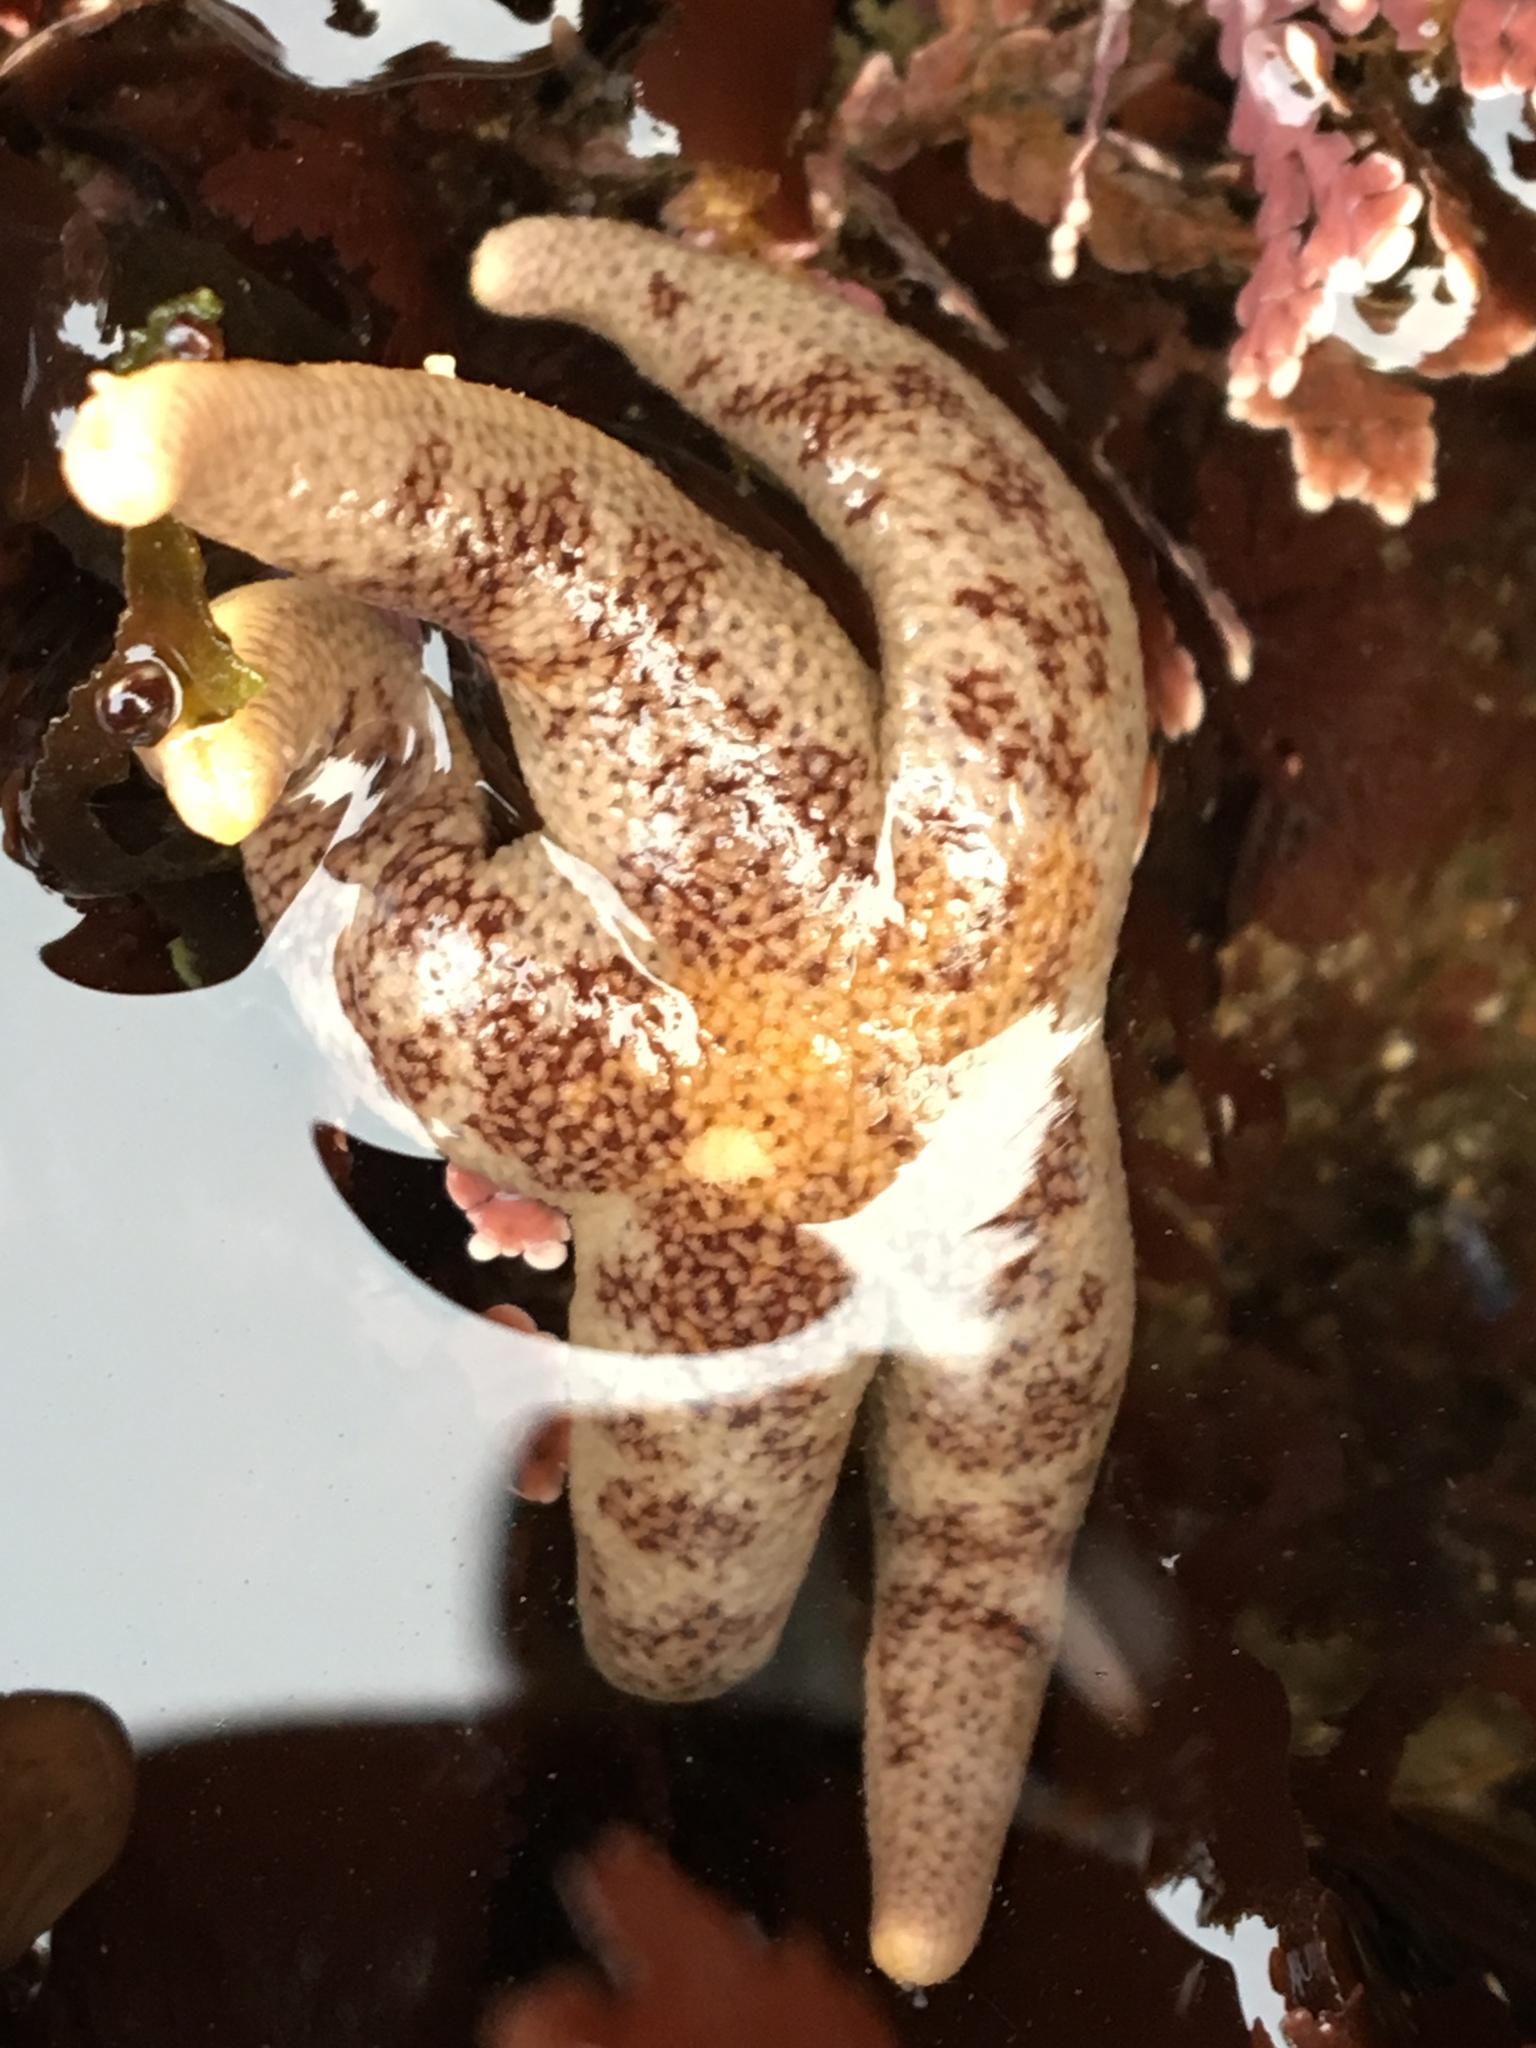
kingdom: Animalia
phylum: Echinodermata
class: Asteroidea
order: Spinulosida
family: Echinasteridae
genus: Henricia
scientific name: Henricia pumila
